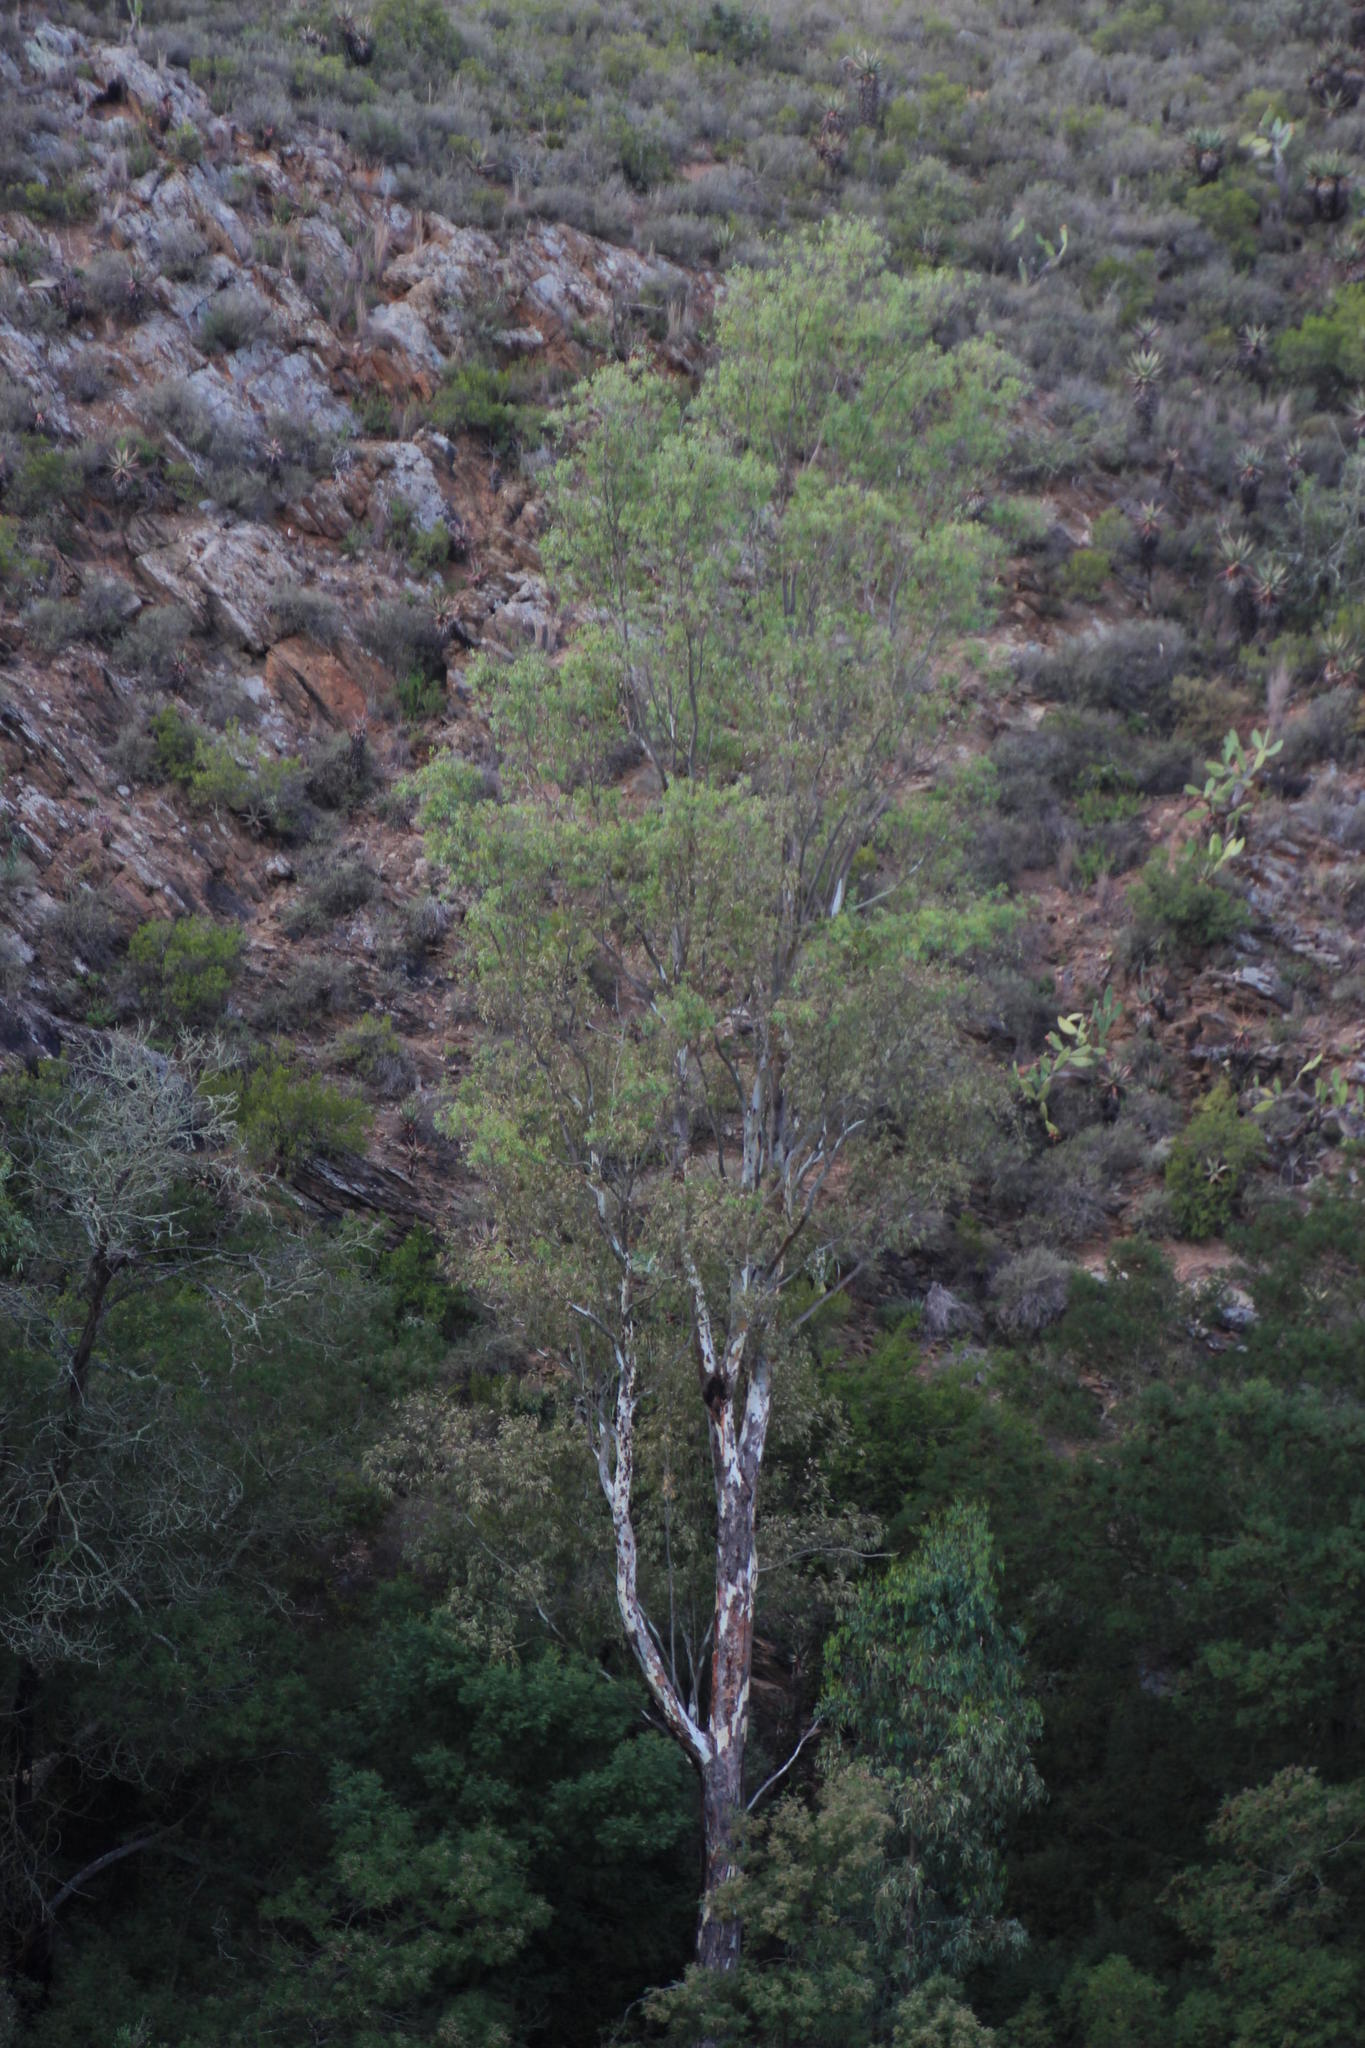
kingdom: Plantae
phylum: Tracheophyta
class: Magnoliopsida
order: Myrtales
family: Myrtaceae
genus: Eucalyptus
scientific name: Eucalyptus camaldulensis
